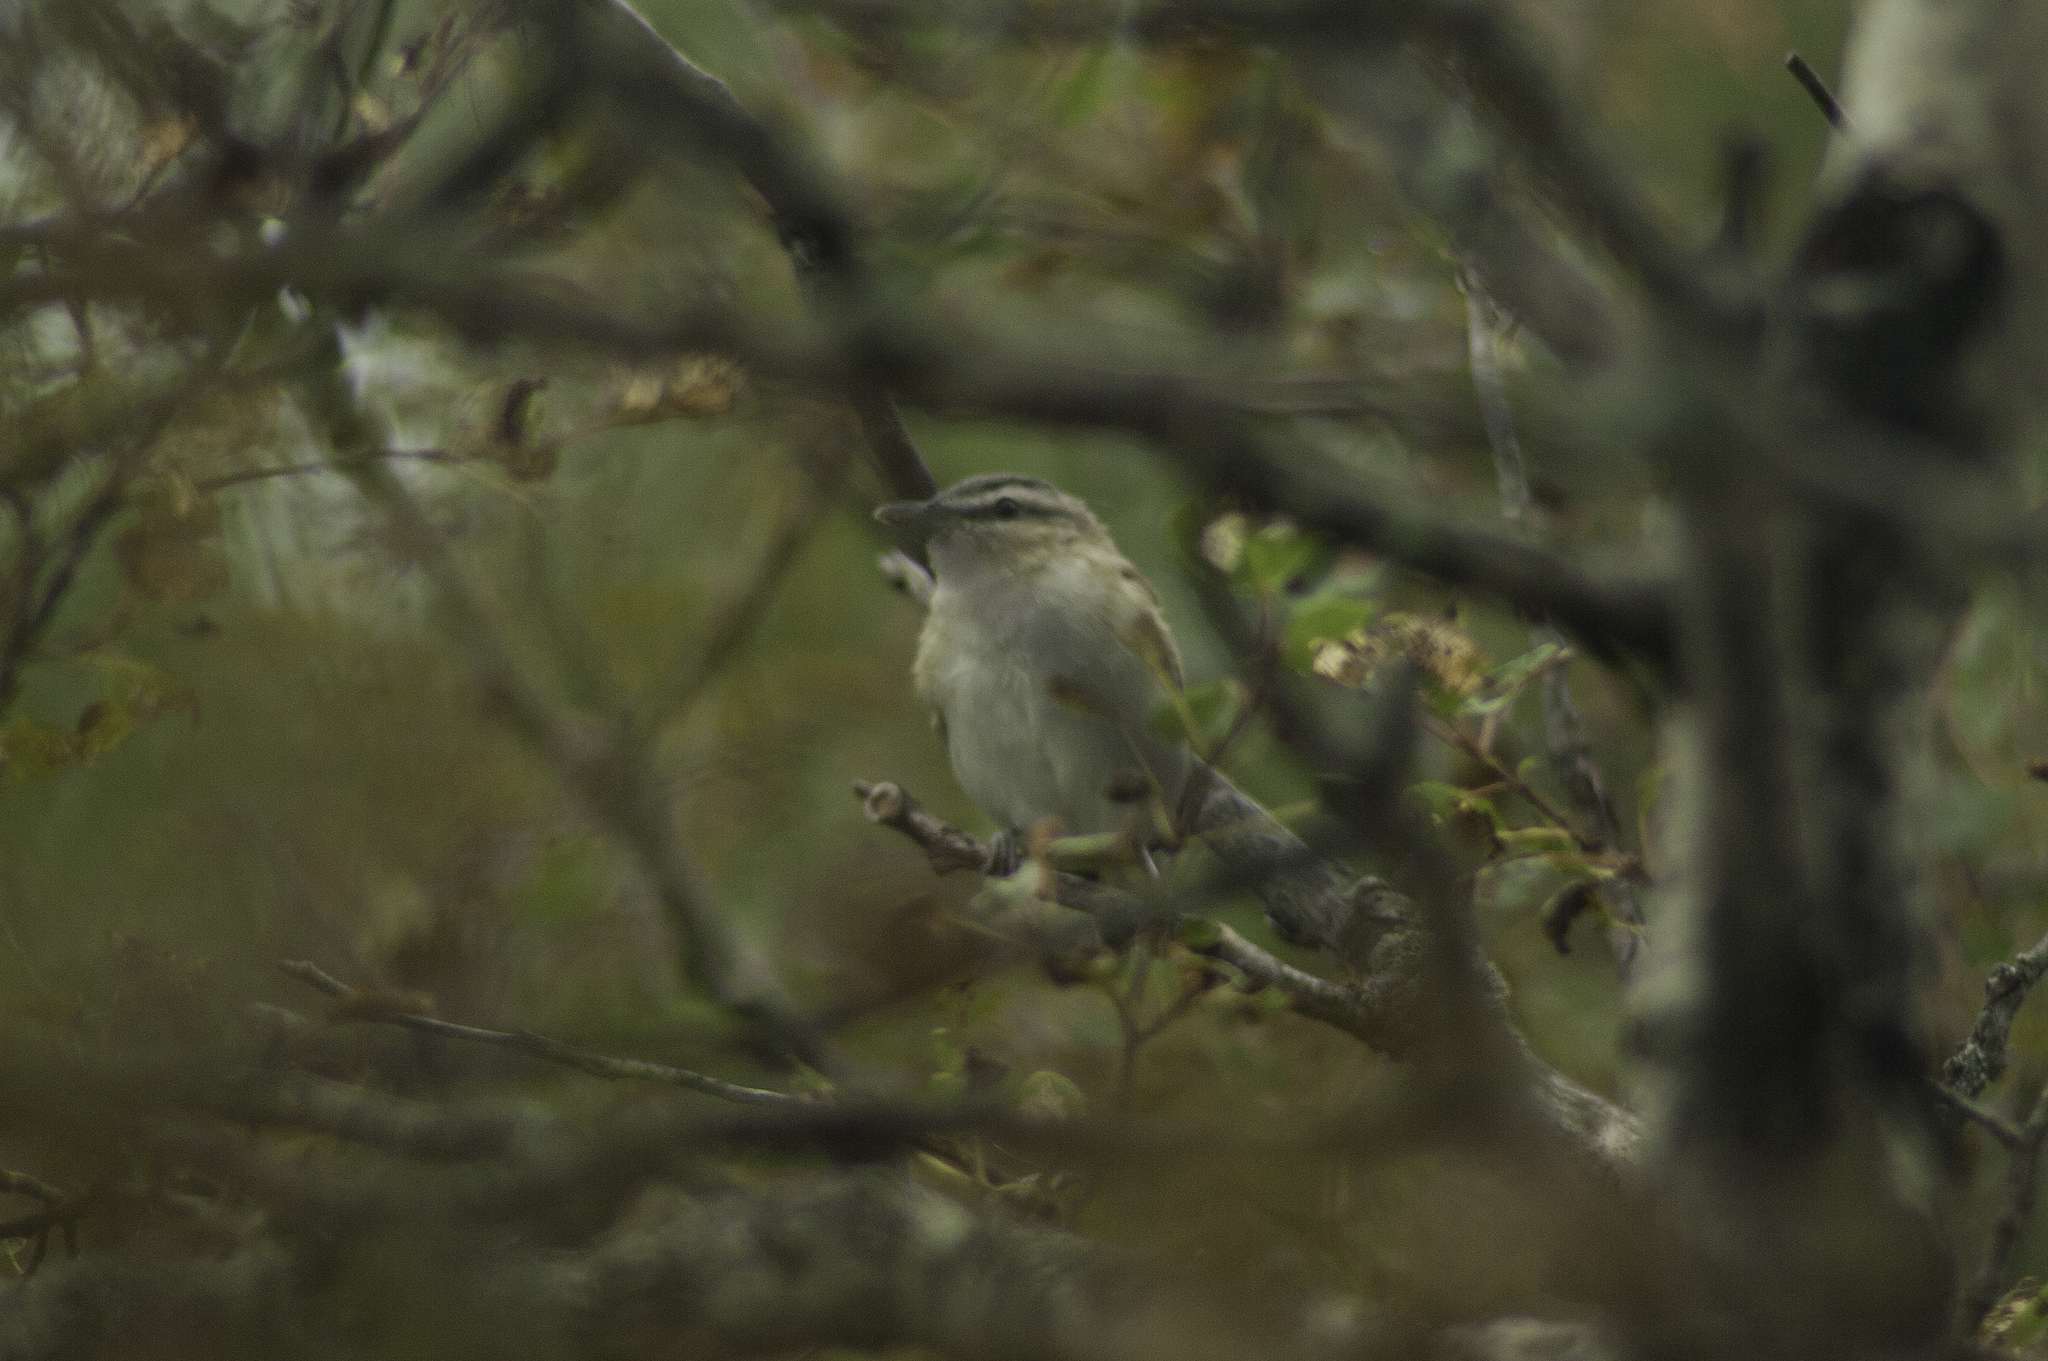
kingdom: Animalia
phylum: Chordata
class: Aves
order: Passeriformes
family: Vireonidae
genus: Vireo
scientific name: Vireo olivaceus
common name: Red-eyed vireo
